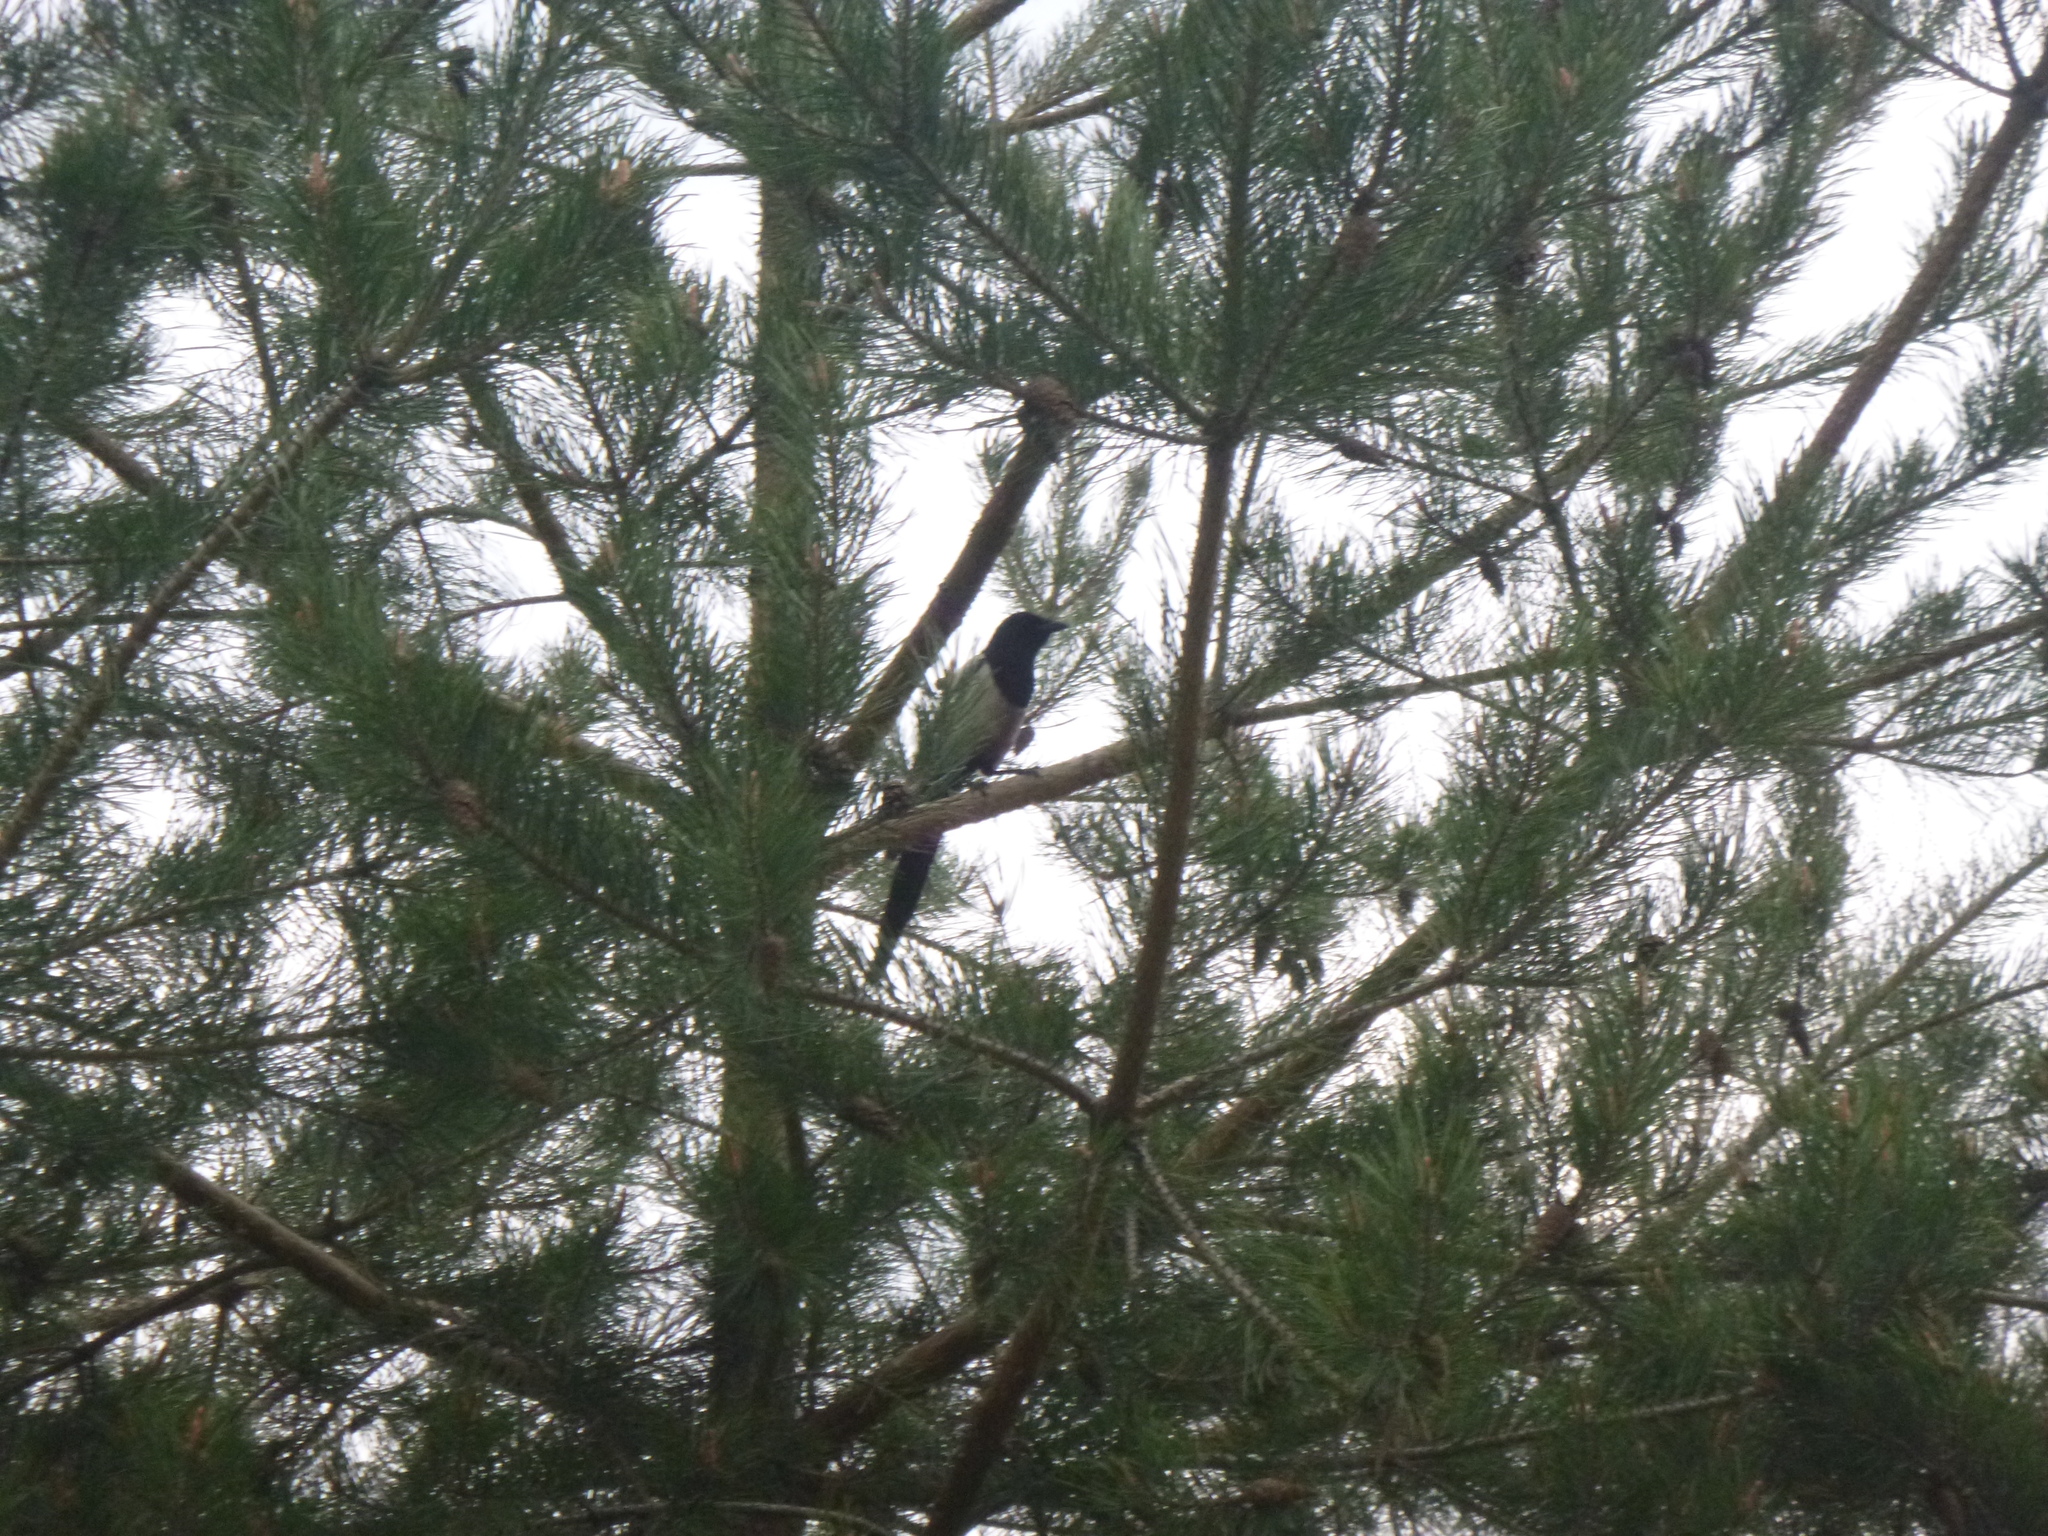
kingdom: Animalia
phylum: Chordata
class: Aves
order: Passeriformes
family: Corvidae
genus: Pica
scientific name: Pica pica
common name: Eurasian magpie
